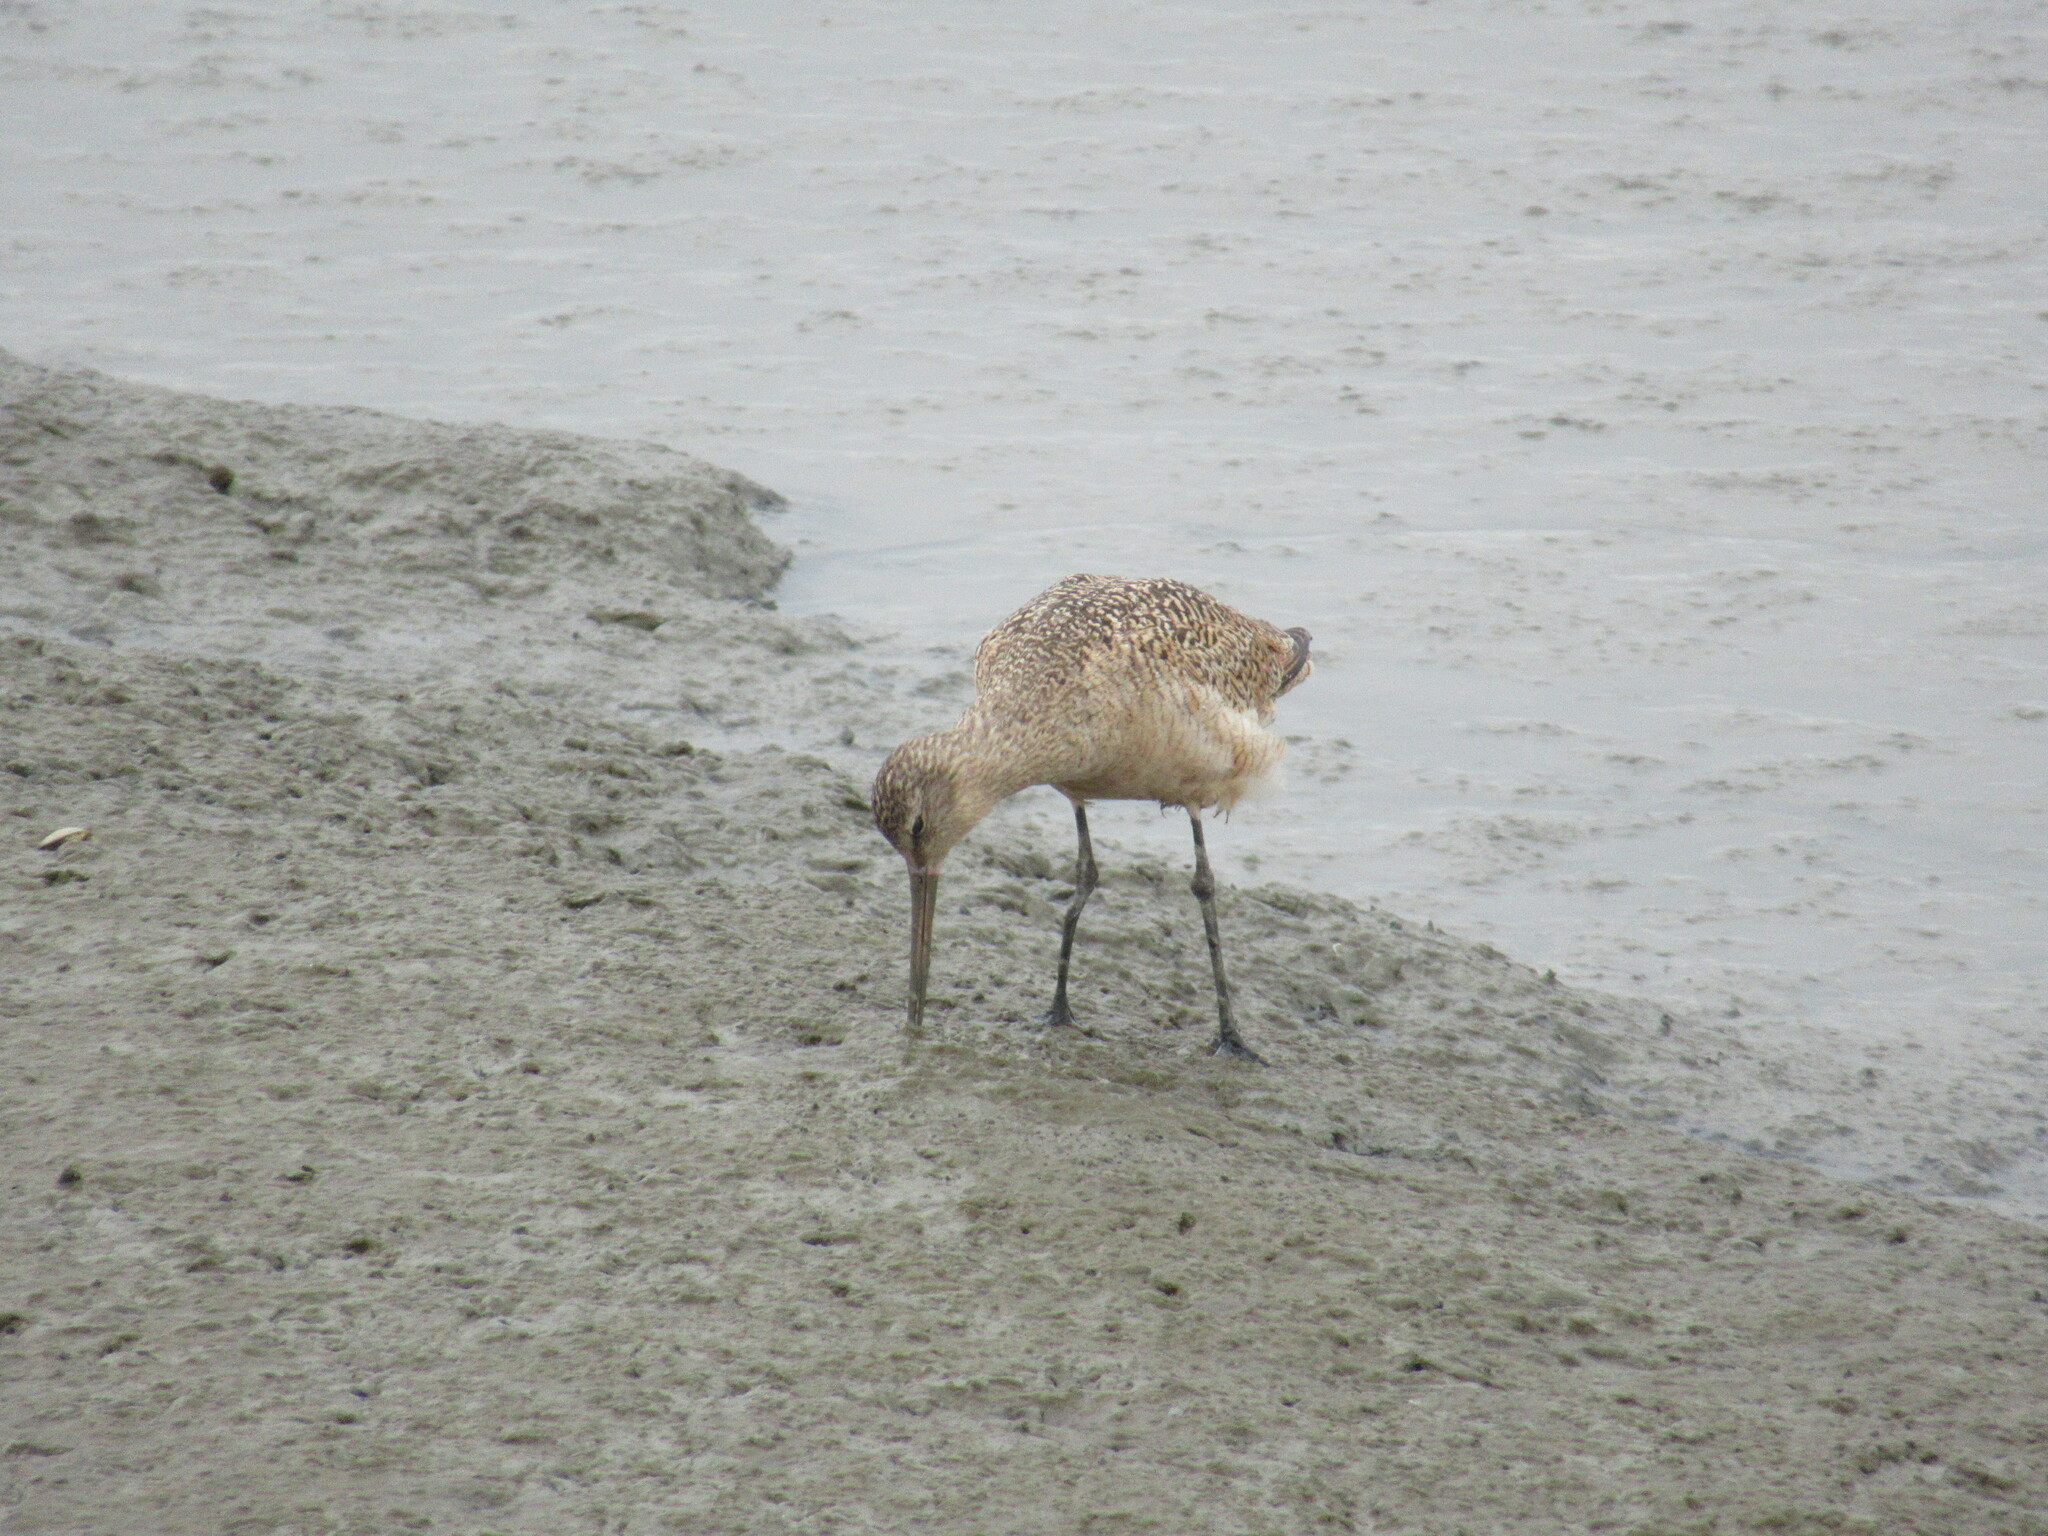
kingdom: Animalia
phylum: Chordata
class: Aves
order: Charadriiformes
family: Scolopacidae
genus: Limosa
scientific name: Limosa fedoa
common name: Marbled godwit
